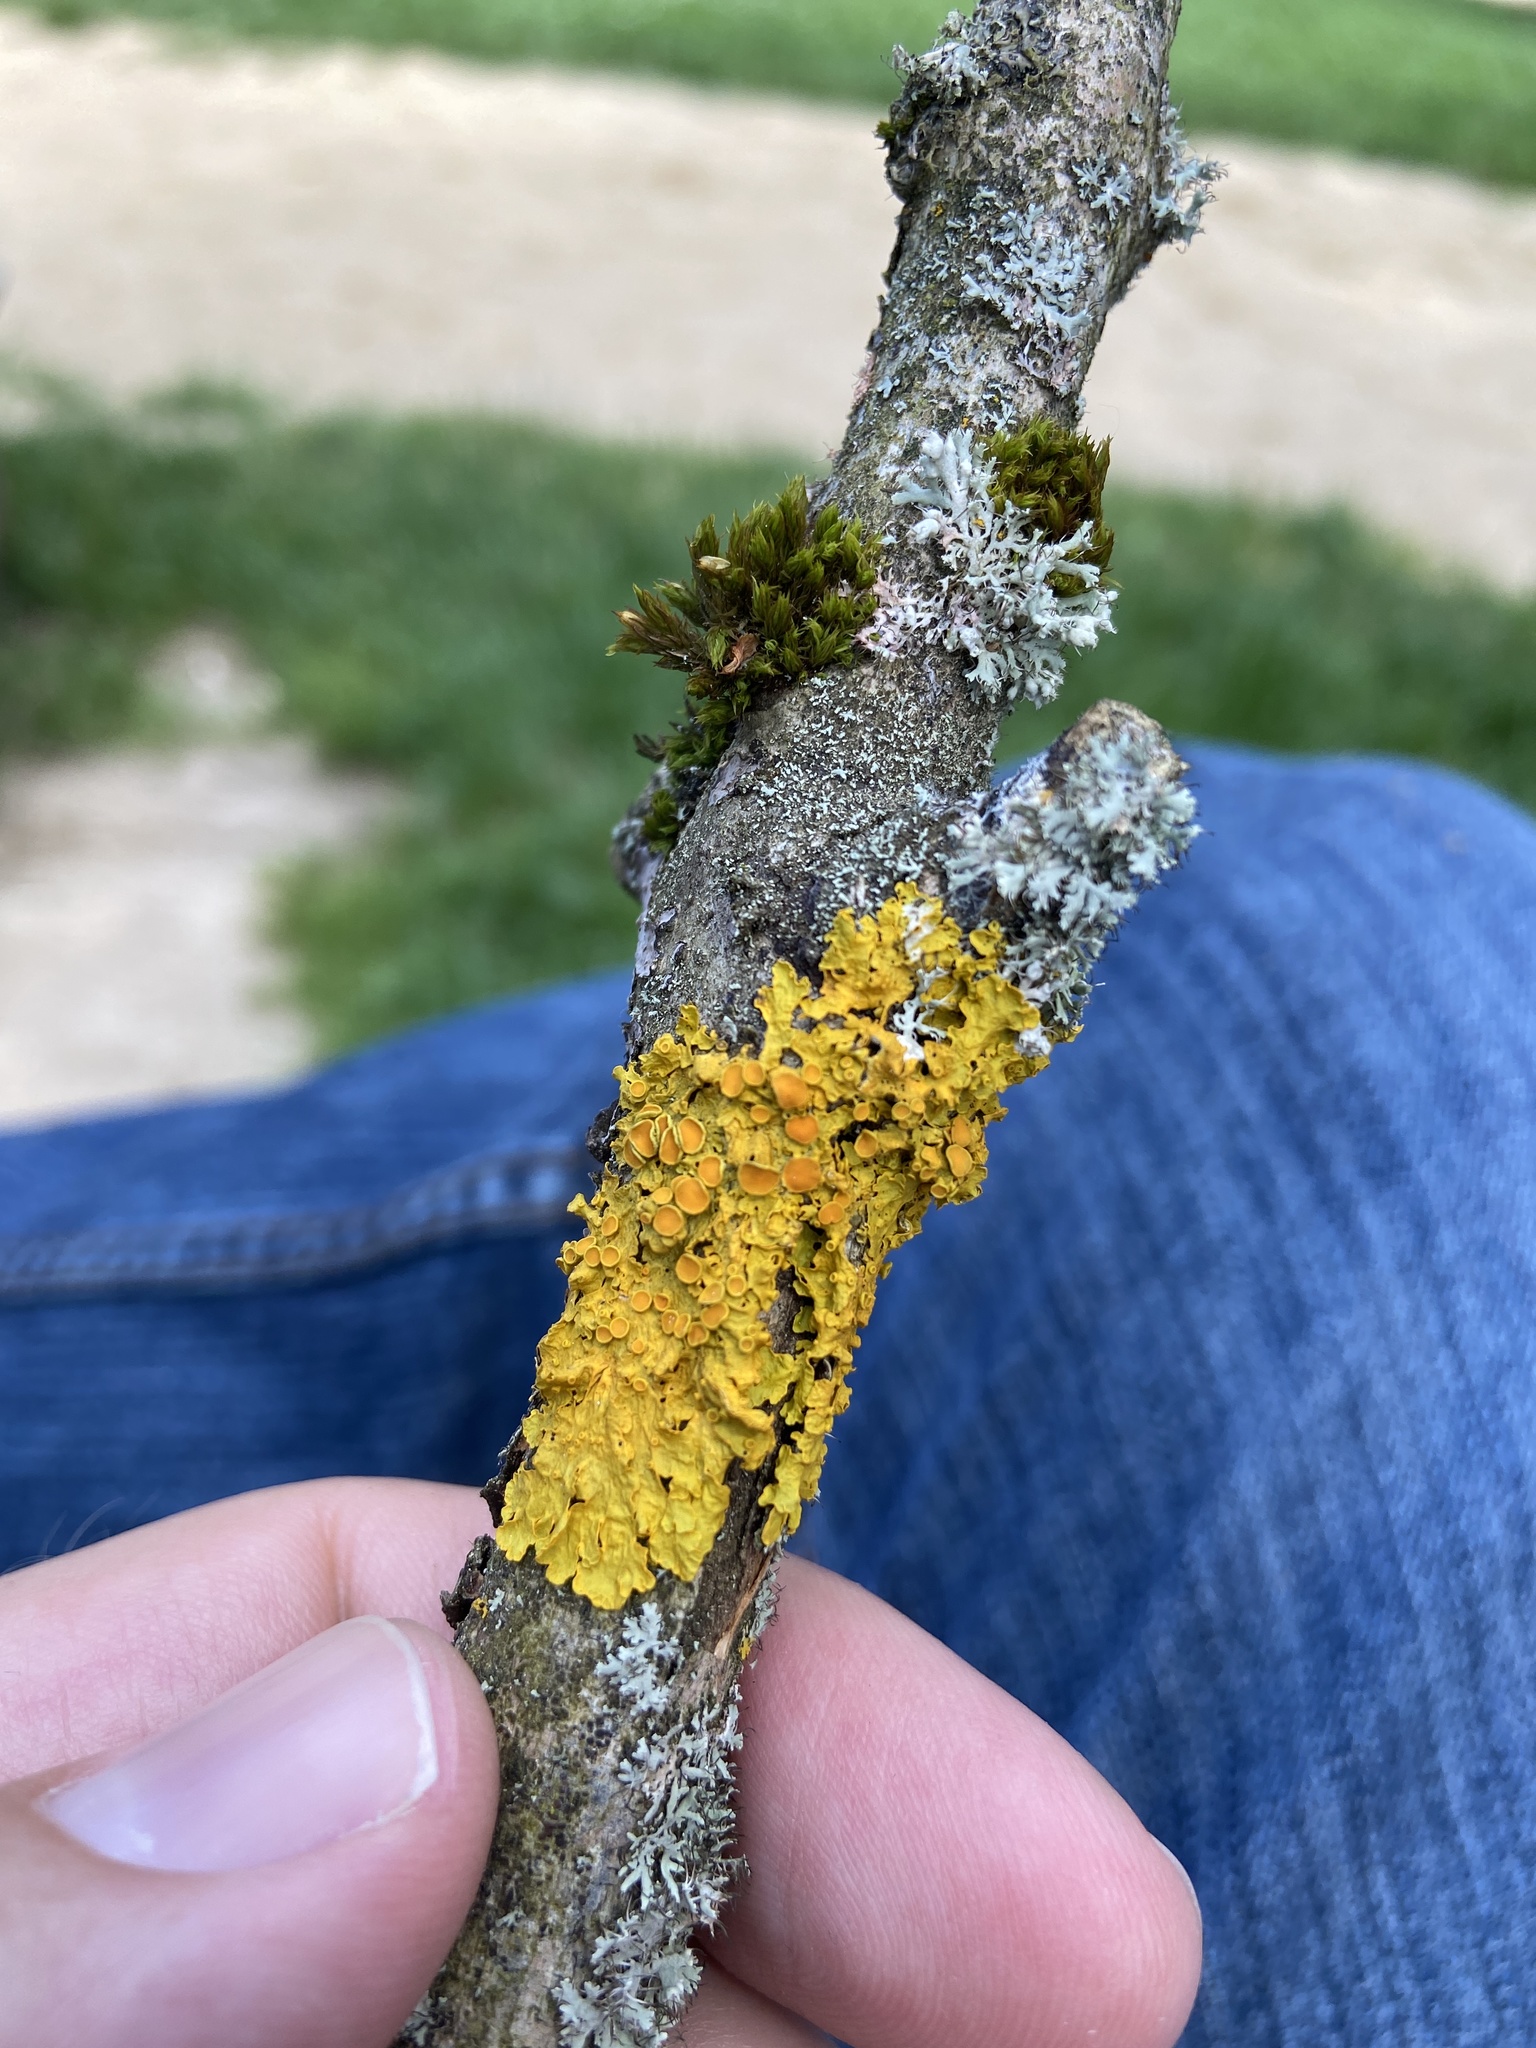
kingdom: Fungi
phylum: Ascomycota
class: Lecanoromycetes
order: Teloschistales
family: Teloschistaceae
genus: Xanthoria
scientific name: Xanthoria parietina
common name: Common orange lichen
